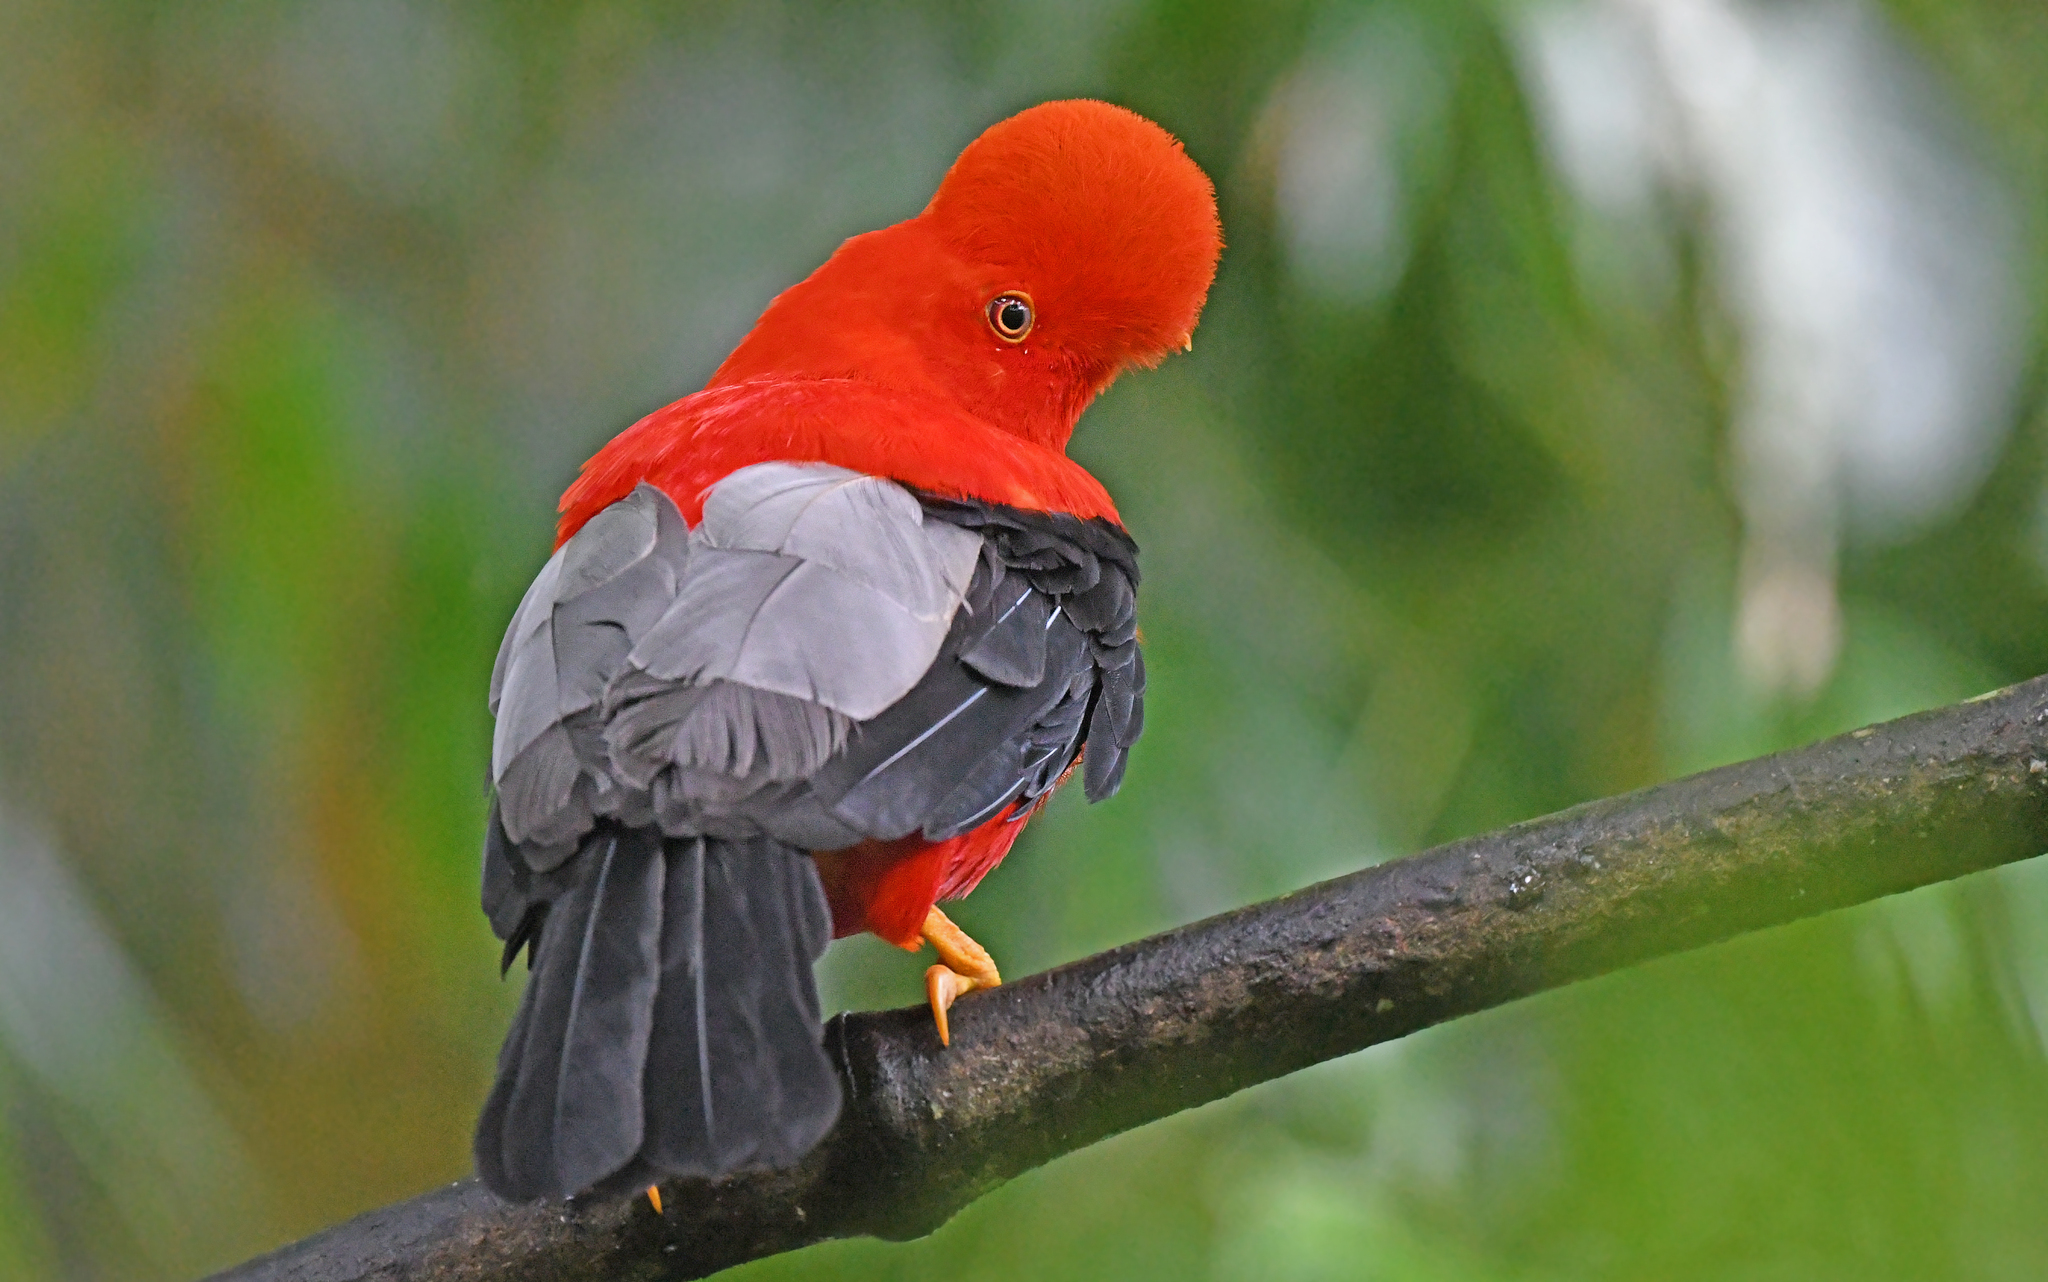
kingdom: Animalia
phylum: Chordata
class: Aves
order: Passeriformes
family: Cotingidae
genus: Rupicola
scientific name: Rupicola peruvianus
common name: Andean cock-of-the-rock
